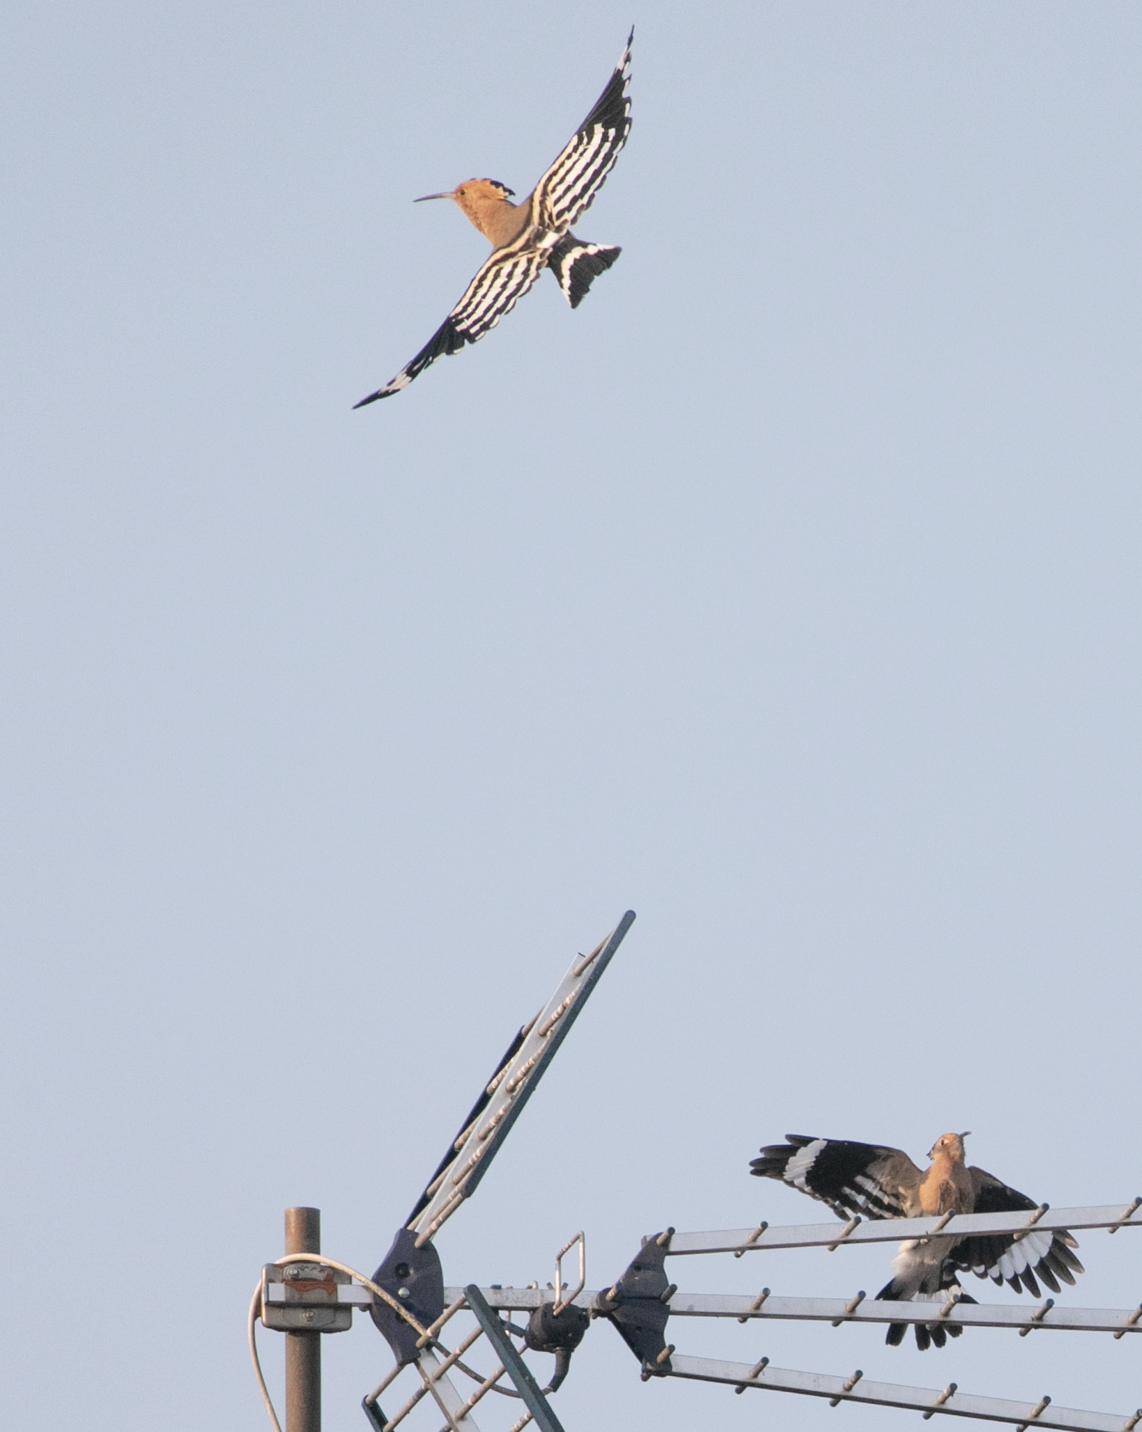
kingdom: Animalia
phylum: Chordata
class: Aves
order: Bucerotiformes
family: Upupidae
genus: Upupa
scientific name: Upupa epops
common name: Eurasian hoopoe
